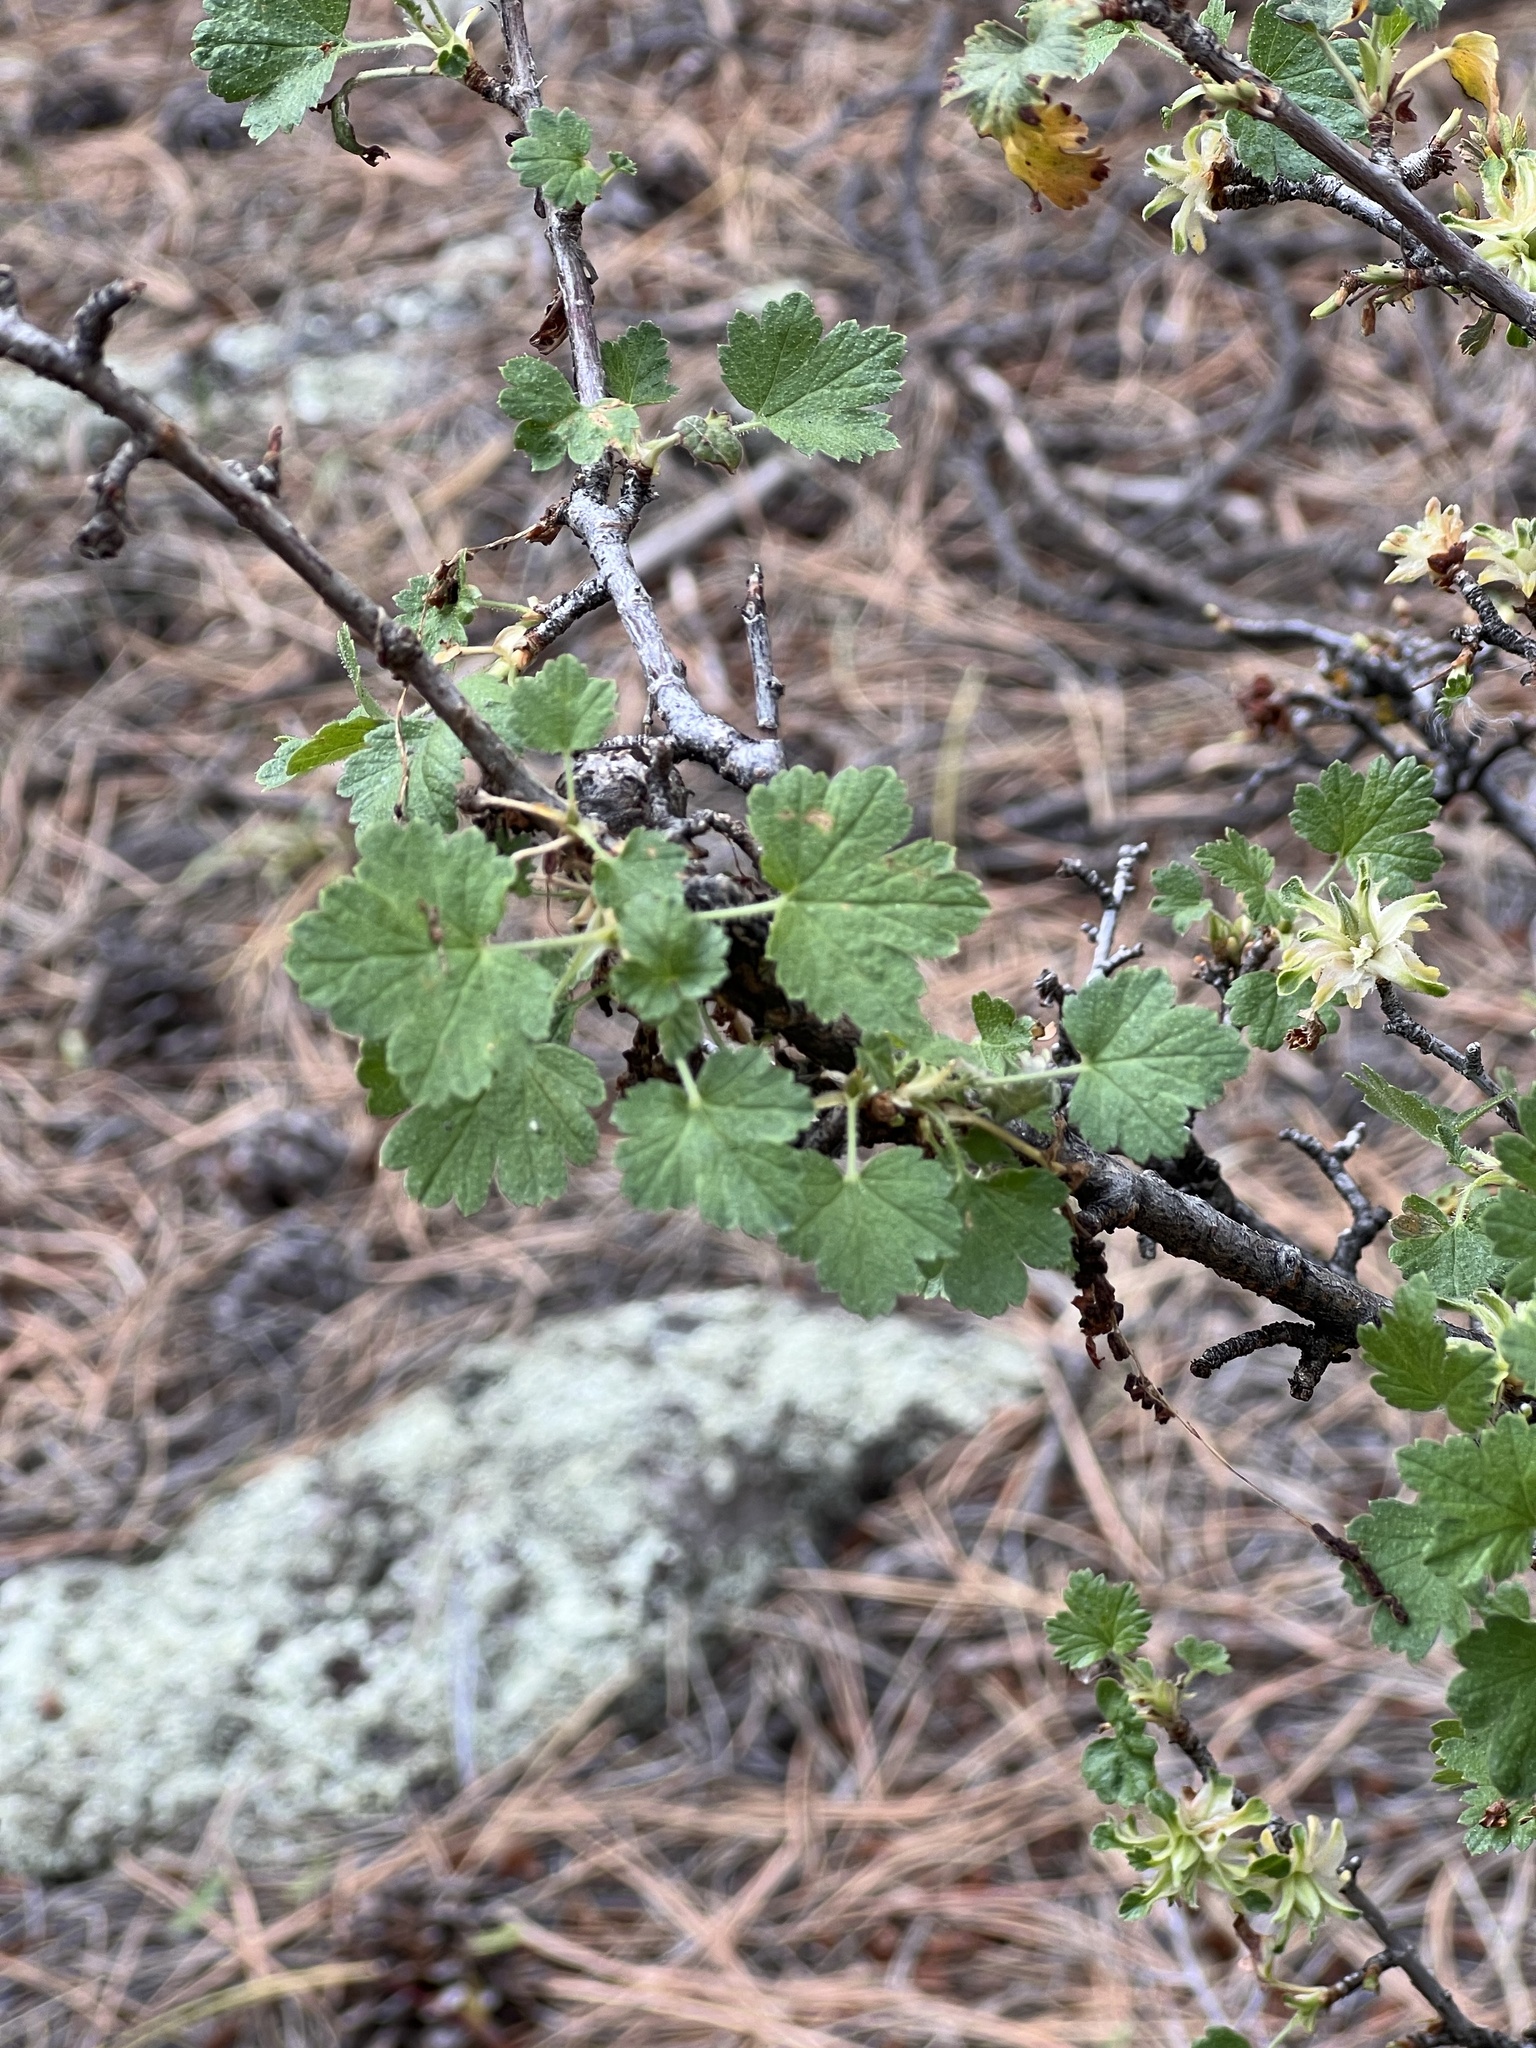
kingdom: Plantae
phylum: Tracheophyta
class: Magnoliopsida
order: Saxifragales
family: Grossulariaceae
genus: Ribes
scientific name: Ribes cereum
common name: Wax currant
